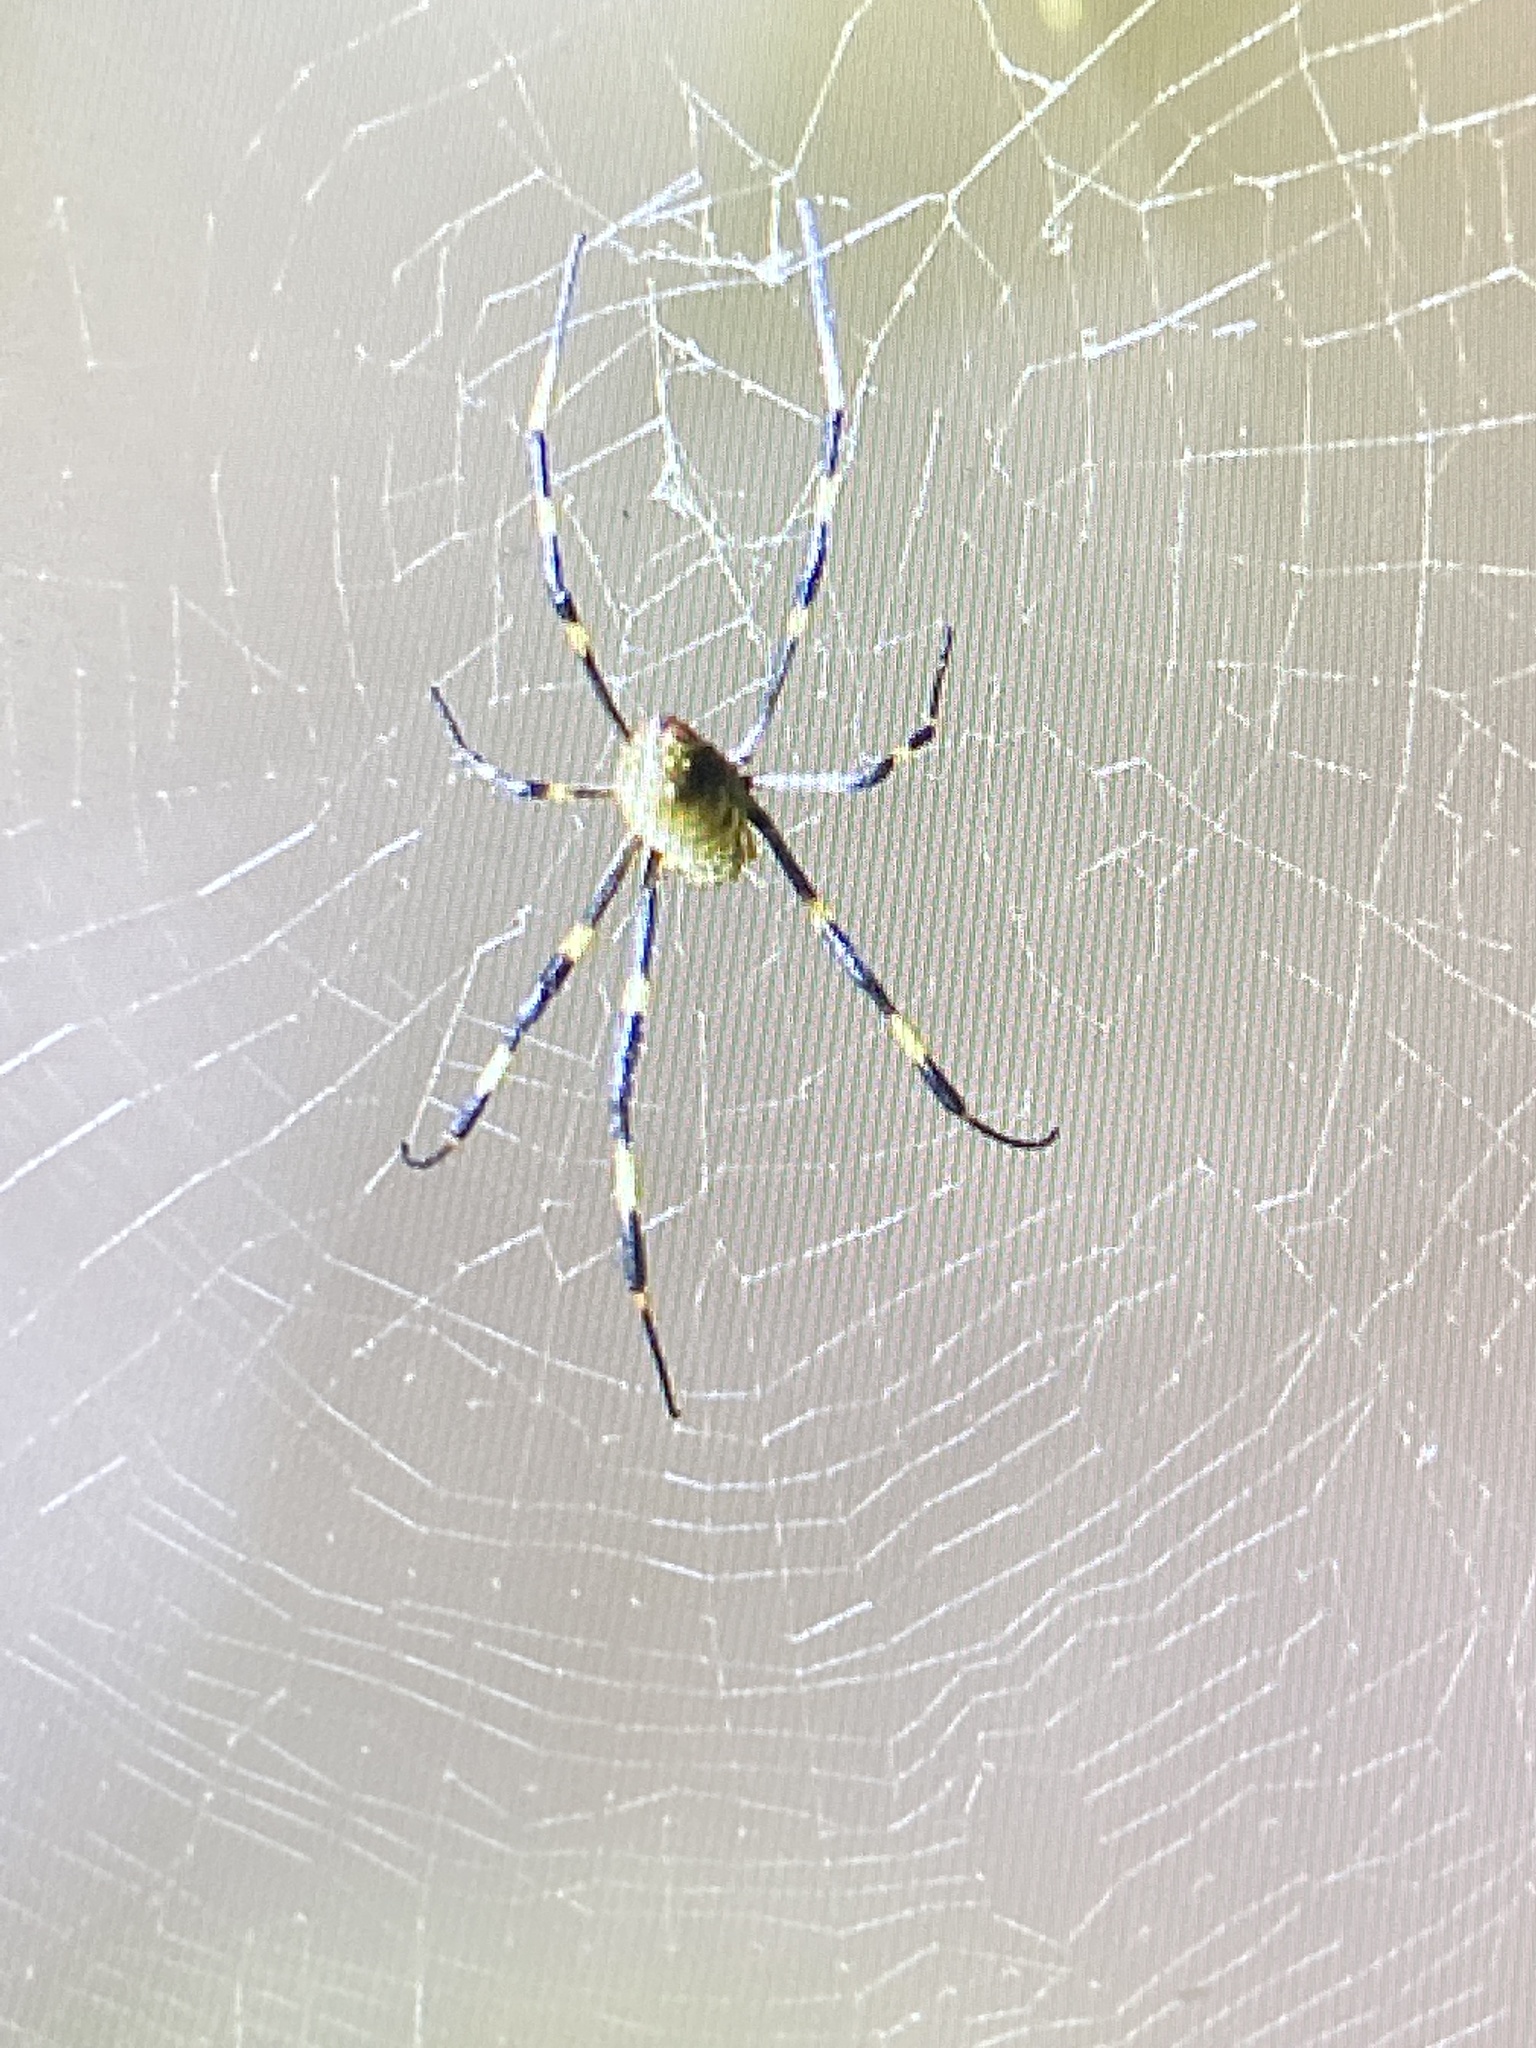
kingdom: Animalia
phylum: Arthropoda
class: Arachnida
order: Araneae
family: Araneidae
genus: Trichonephila
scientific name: Trichonephila clavata
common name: Jorō spider
